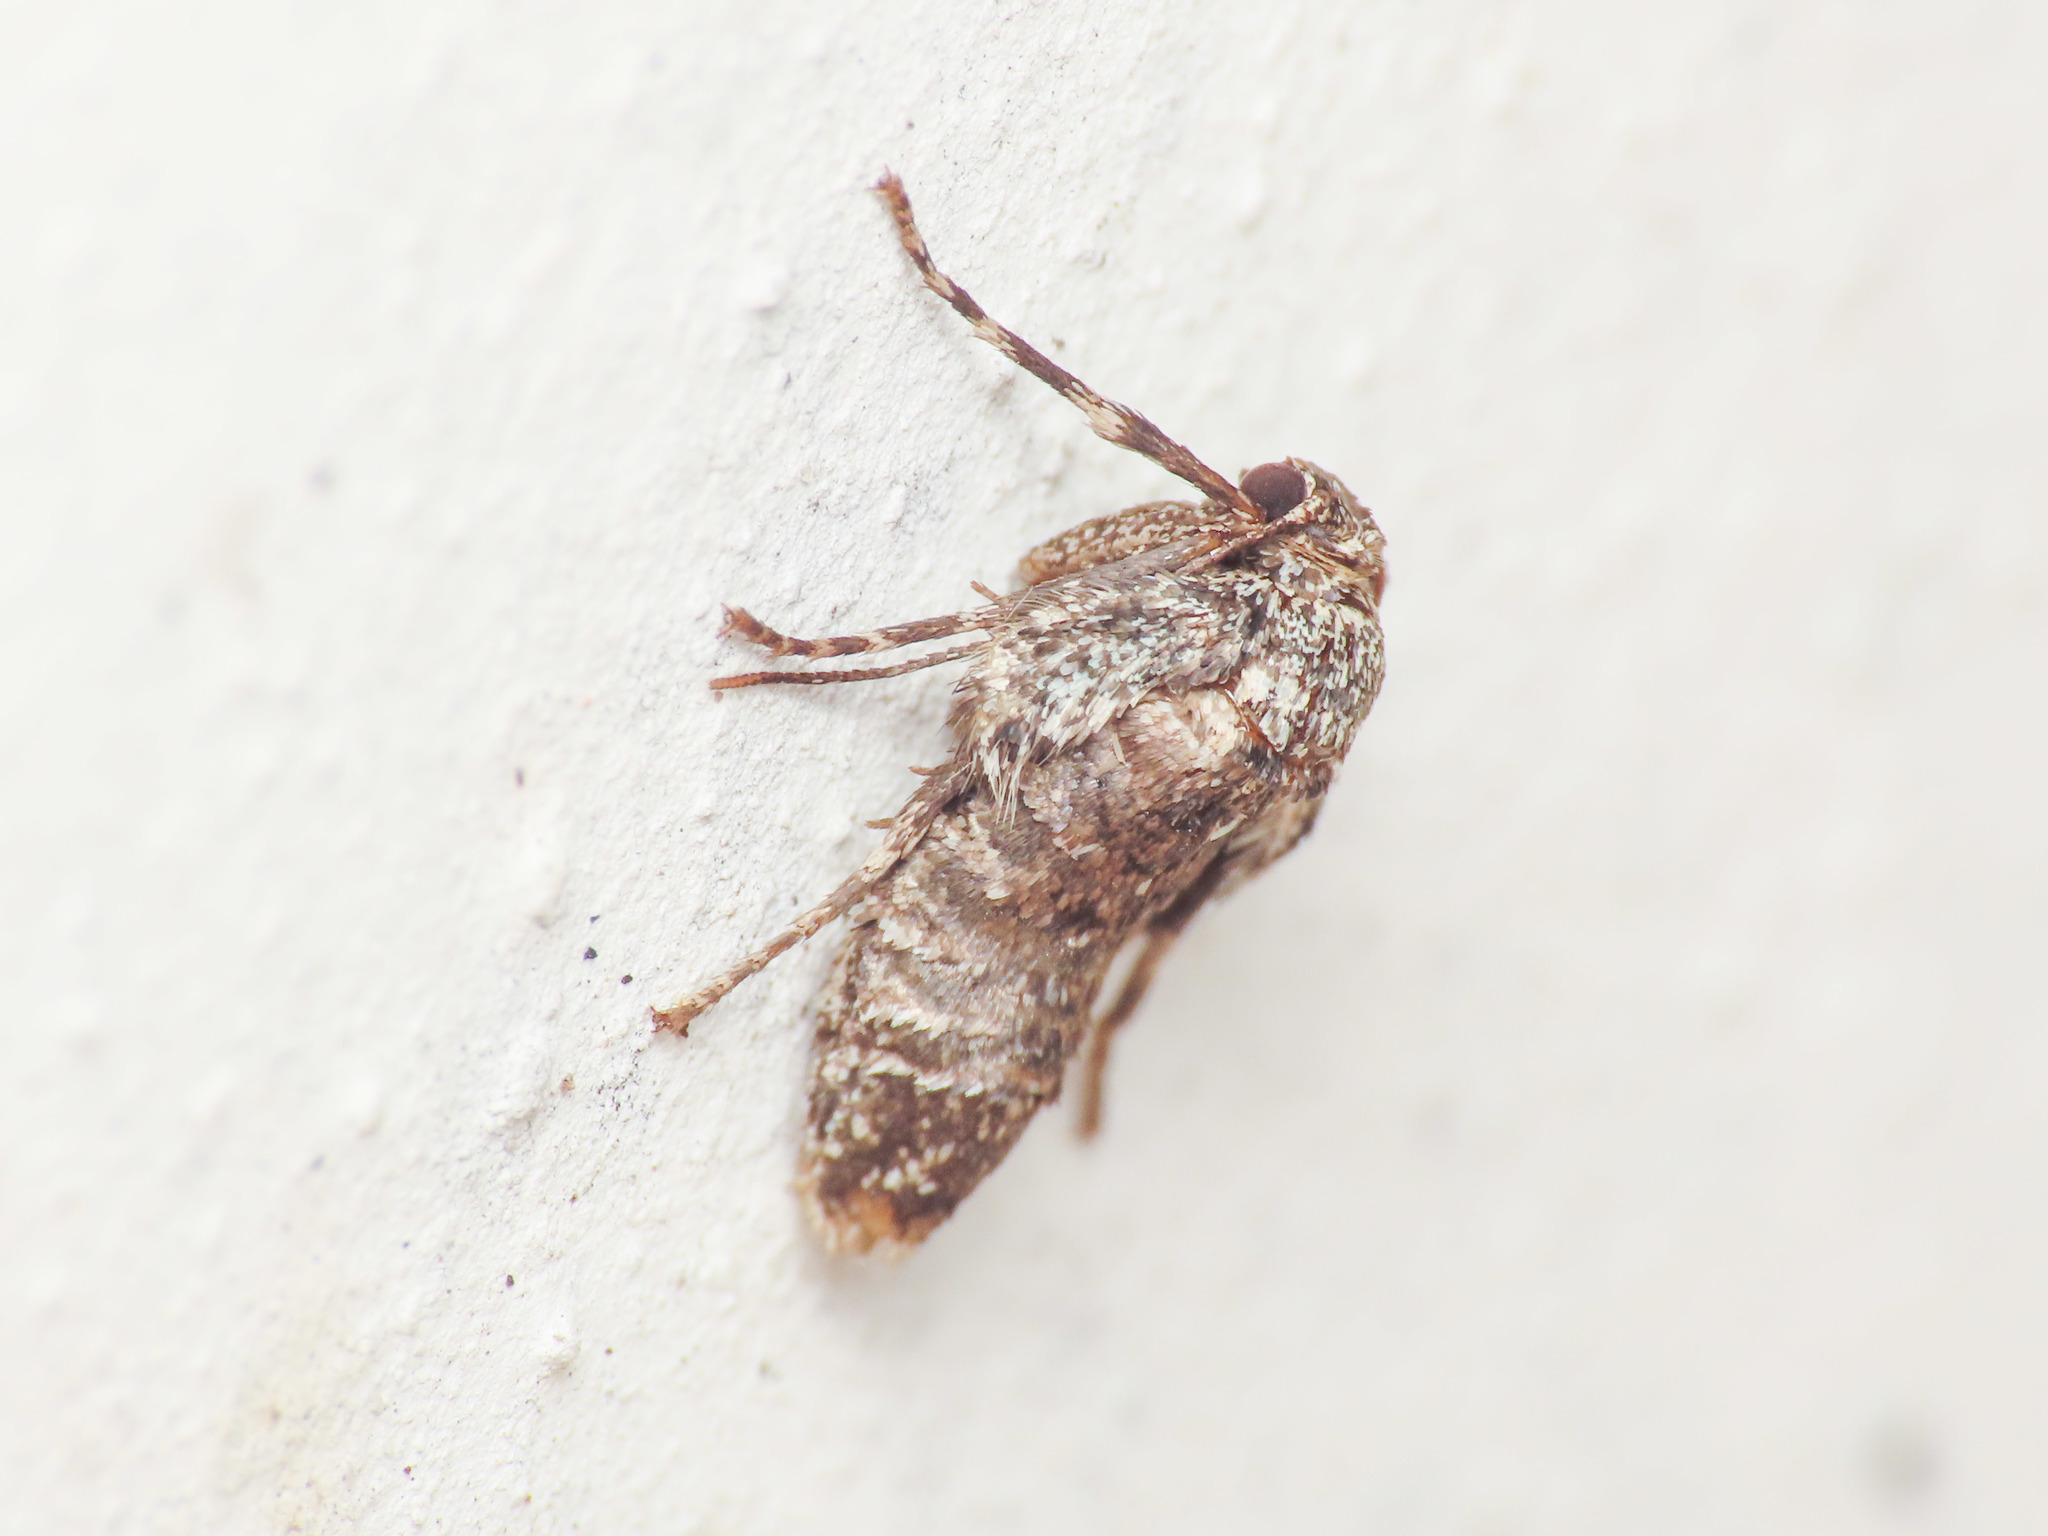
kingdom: Animalia
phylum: Arthropoda
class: Insecta
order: Lepidoptera
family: Geometridae
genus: Operophtera
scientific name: Operophtera brumata
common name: Winter moth
